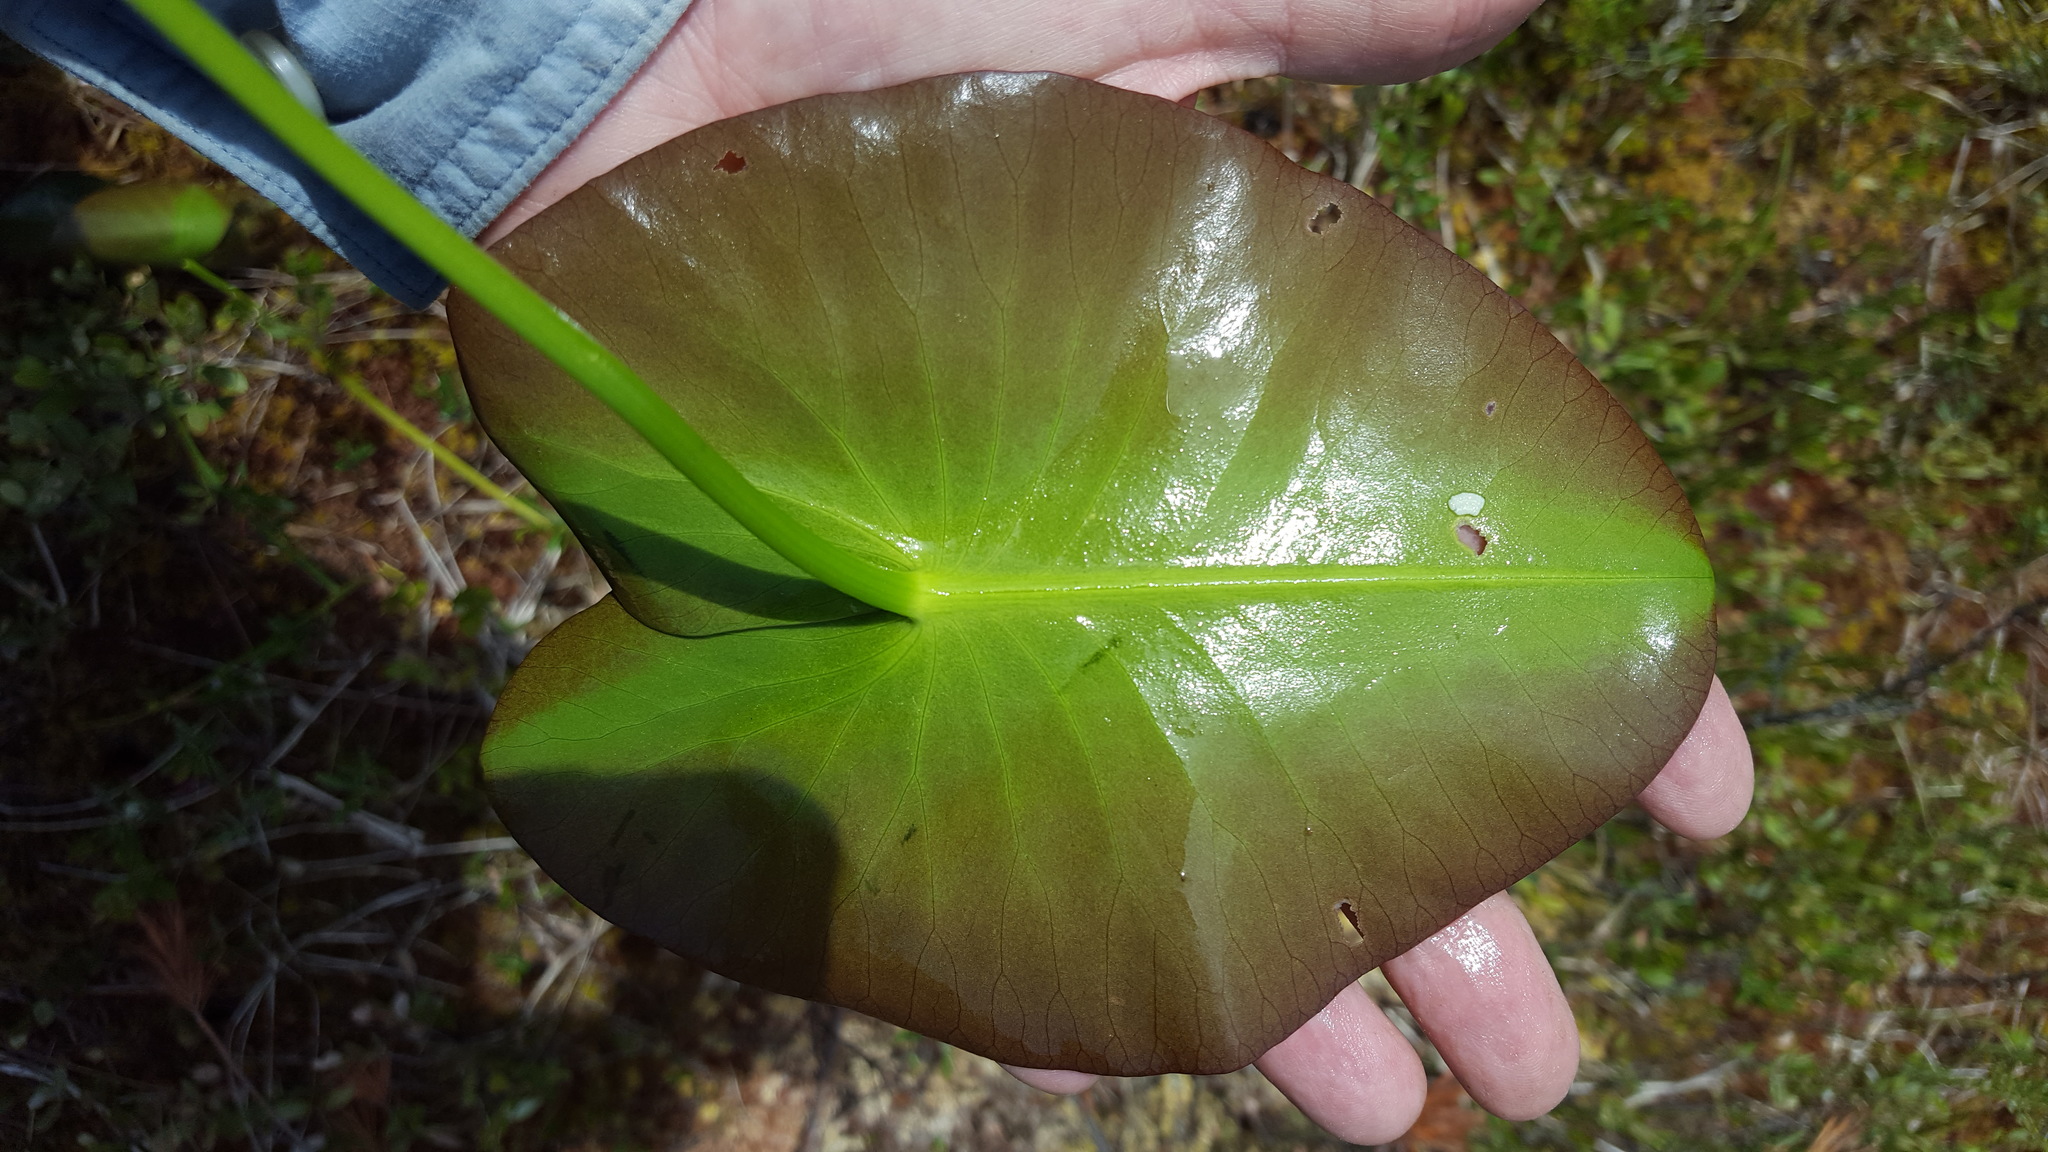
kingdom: Plantae
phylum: Tracheophyta
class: Magnoliopsida
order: Nymphaeales
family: Nymphaeaceae
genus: Nuphar
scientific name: Nuphar rubrodisca
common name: Yellow pond-lily
